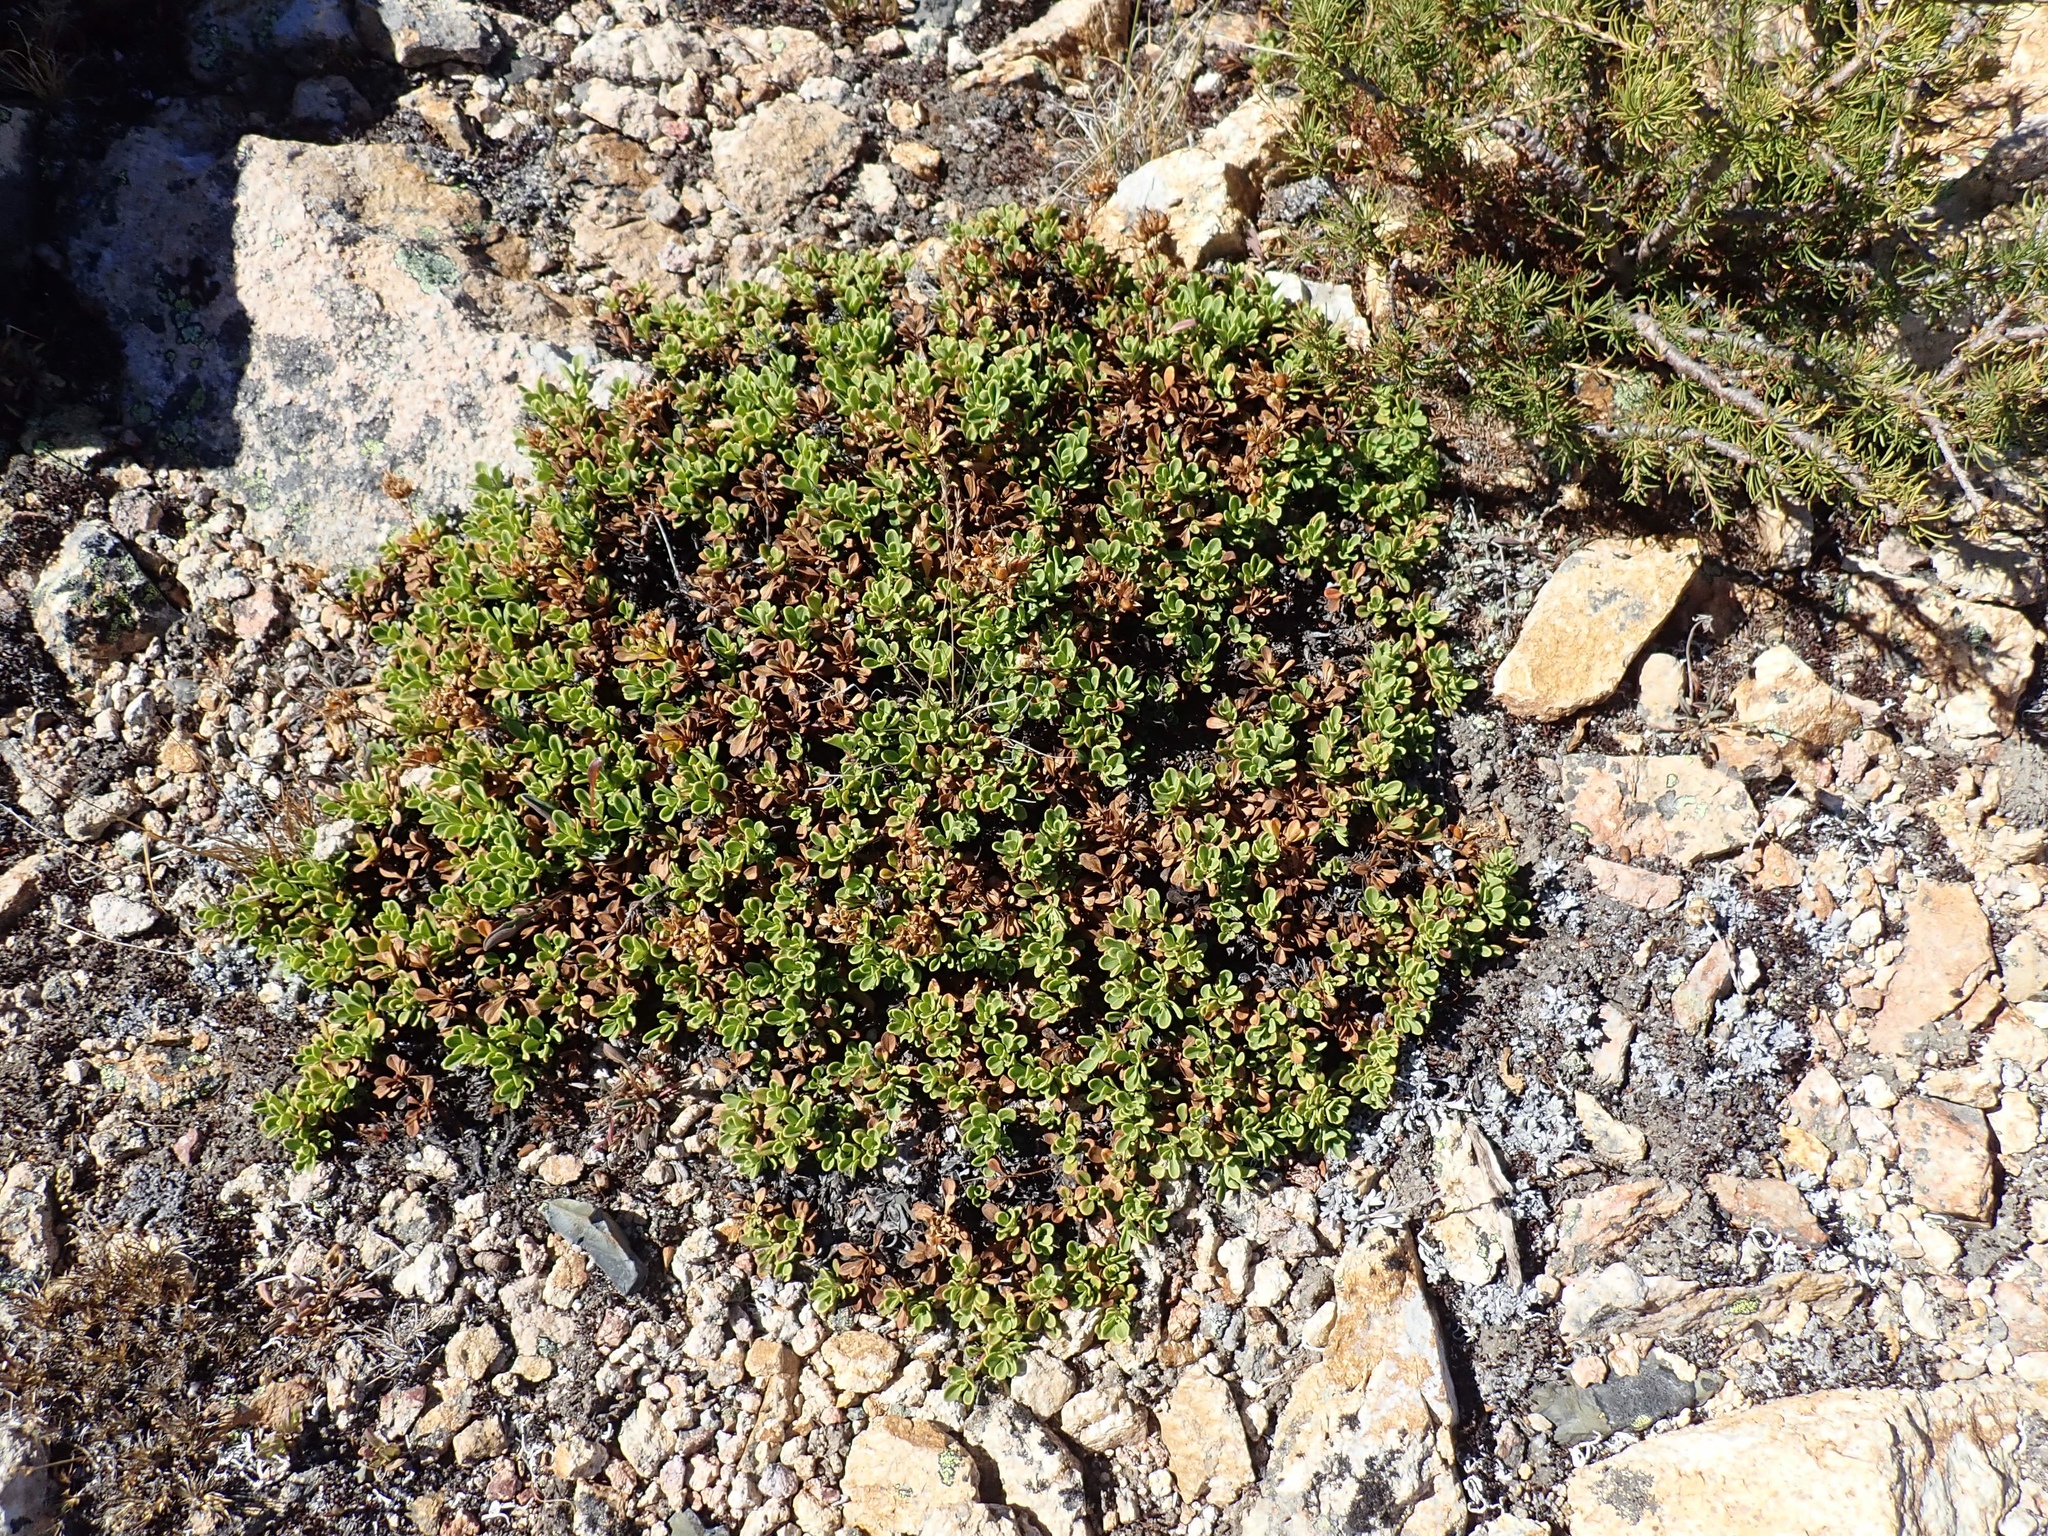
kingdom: Plantae
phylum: Tracheophyta
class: Magnoliopsida
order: Lamiales
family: Plantaginaceae
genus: Penstemon
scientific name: Penstemon davidsonii
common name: Davidson's penstemon
